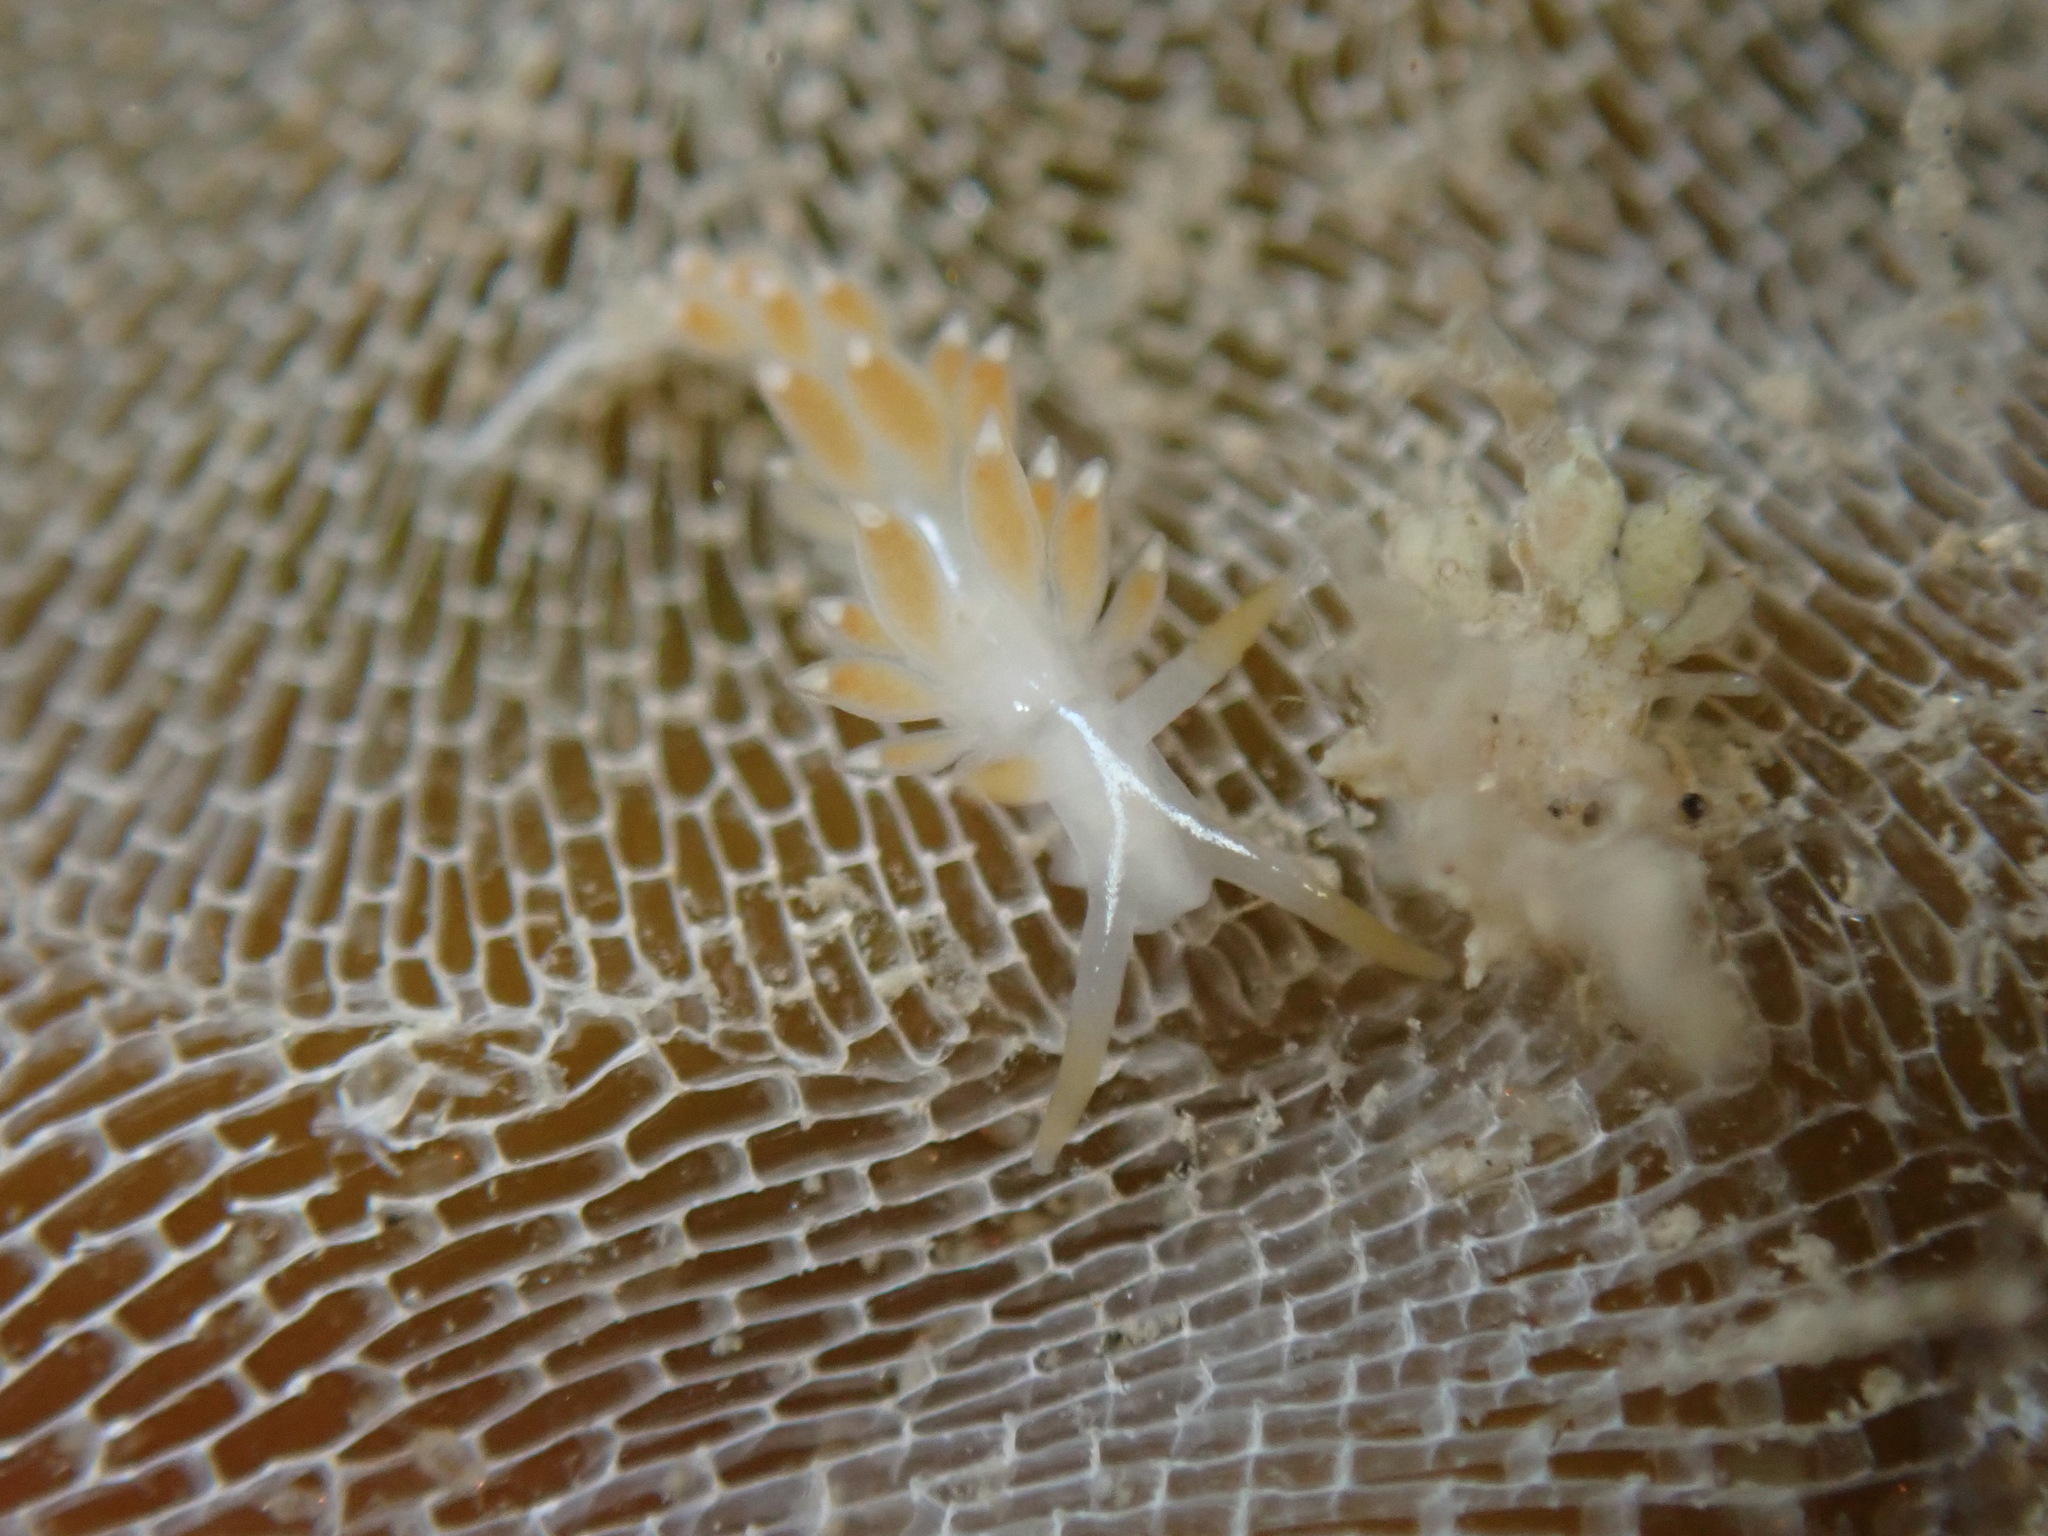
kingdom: Animalia
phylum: Mollusca
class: Gastropoda
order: Nudibranchia
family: Coryphellidae
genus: Coryphella
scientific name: Coryphella trilineata
